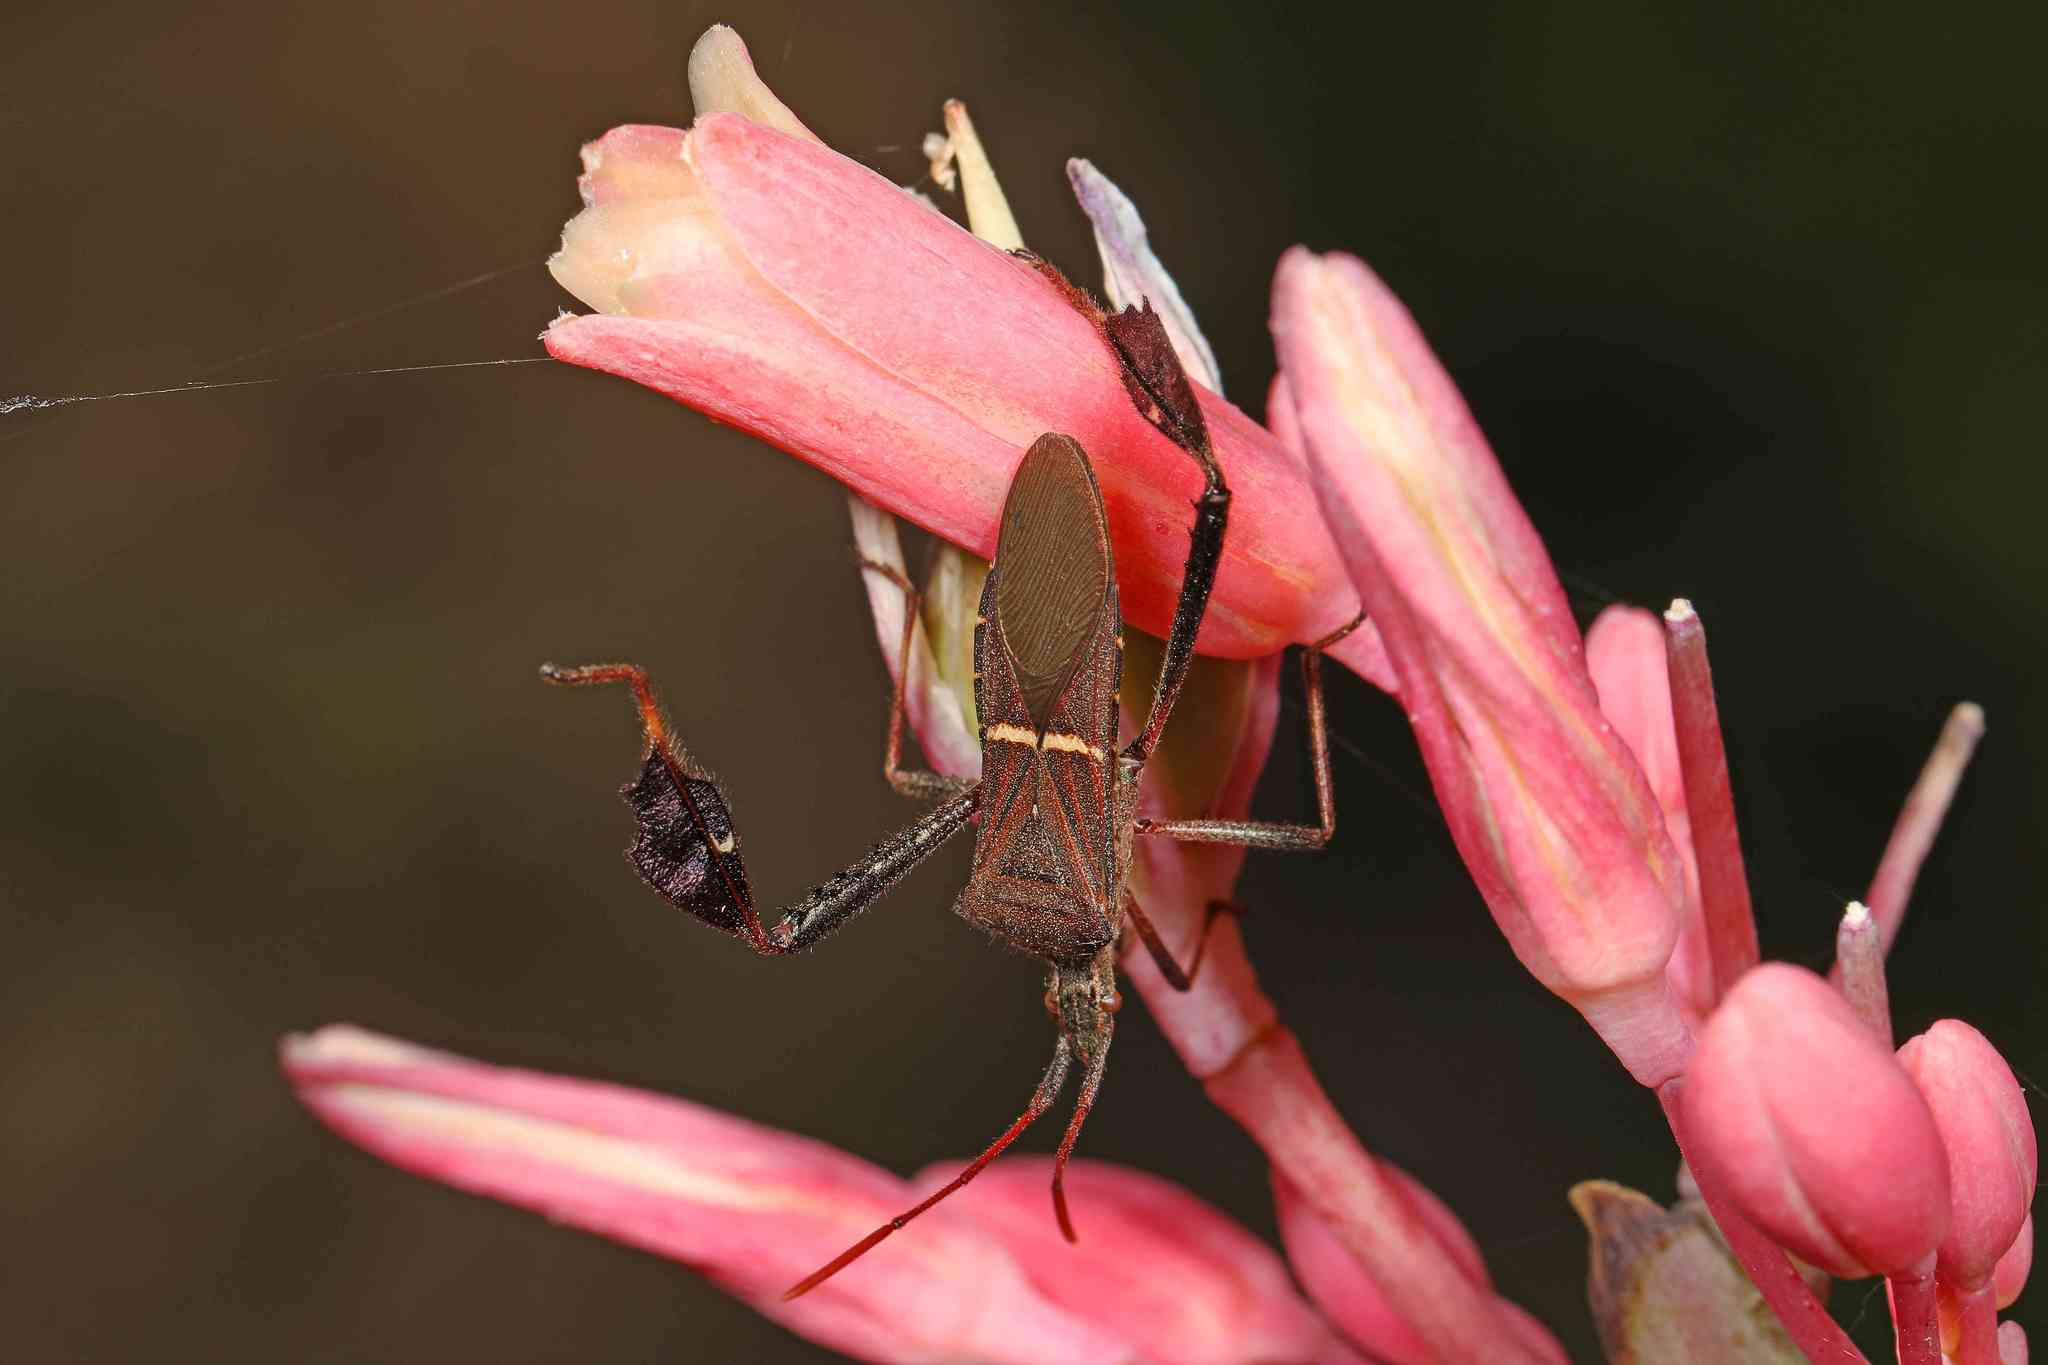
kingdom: Animalia
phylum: Arthropoda
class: Insecta
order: Hemiptera
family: Coreidae
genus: Leptoglossus
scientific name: Leptoglossus phyllopus
